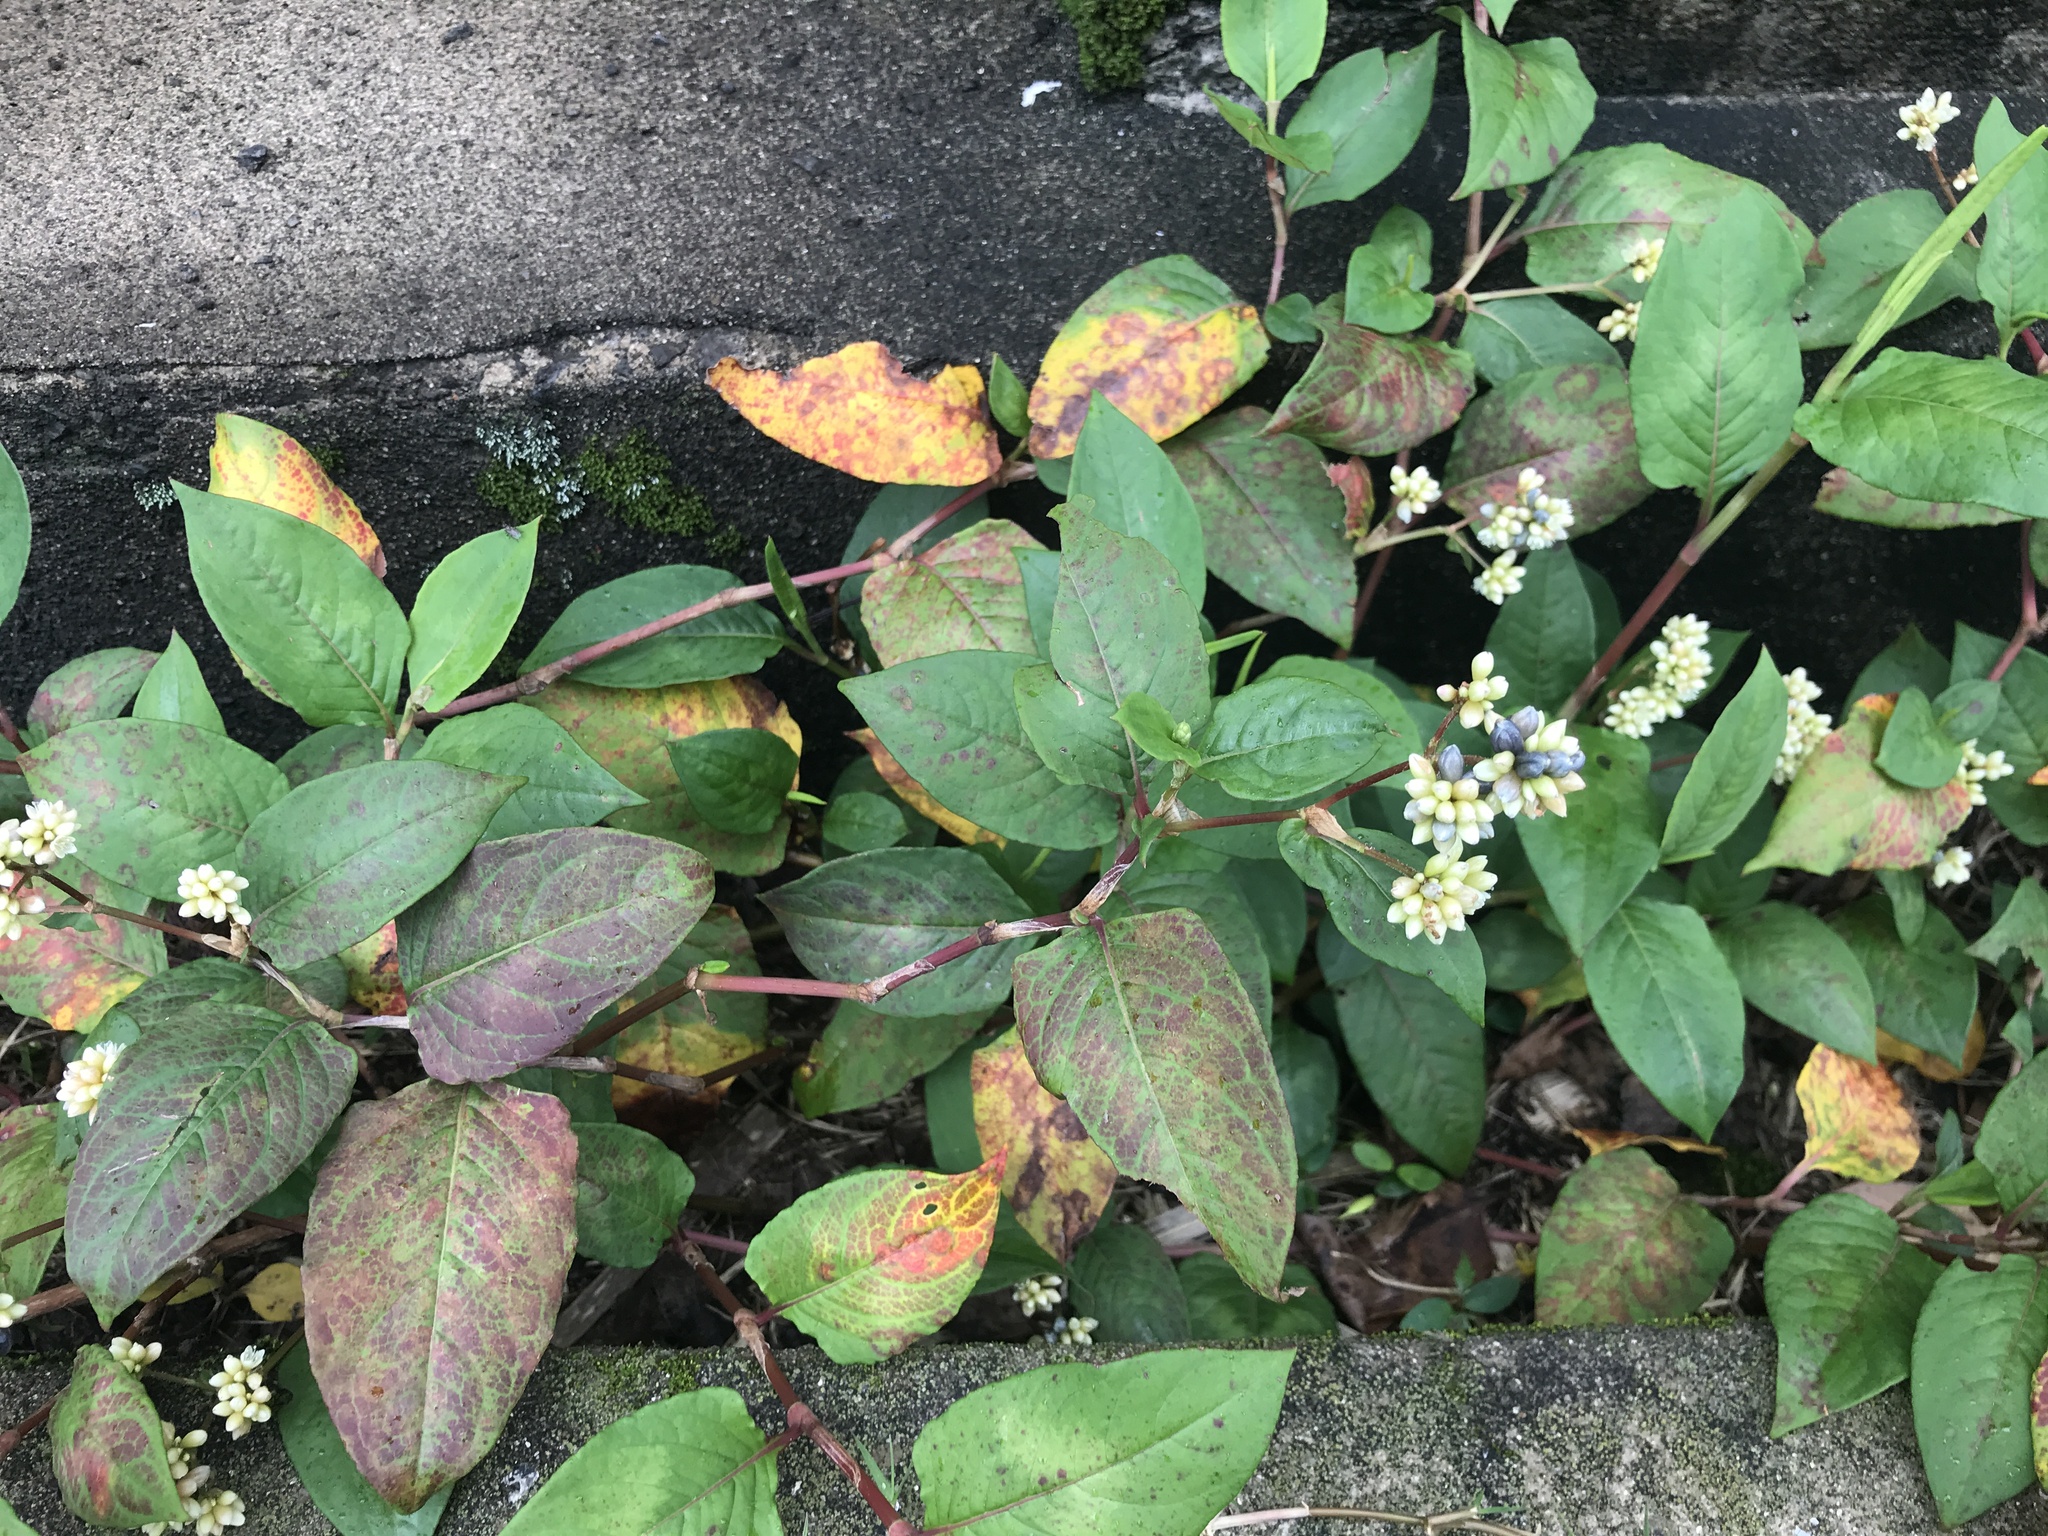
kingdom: Plantae
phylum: Tracheophyta
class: Magnoliopsida
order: Caryophyllales
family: Polygonaceae
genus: Persicaria
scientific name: Persicaria chinensis
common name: Chinese knotweed
